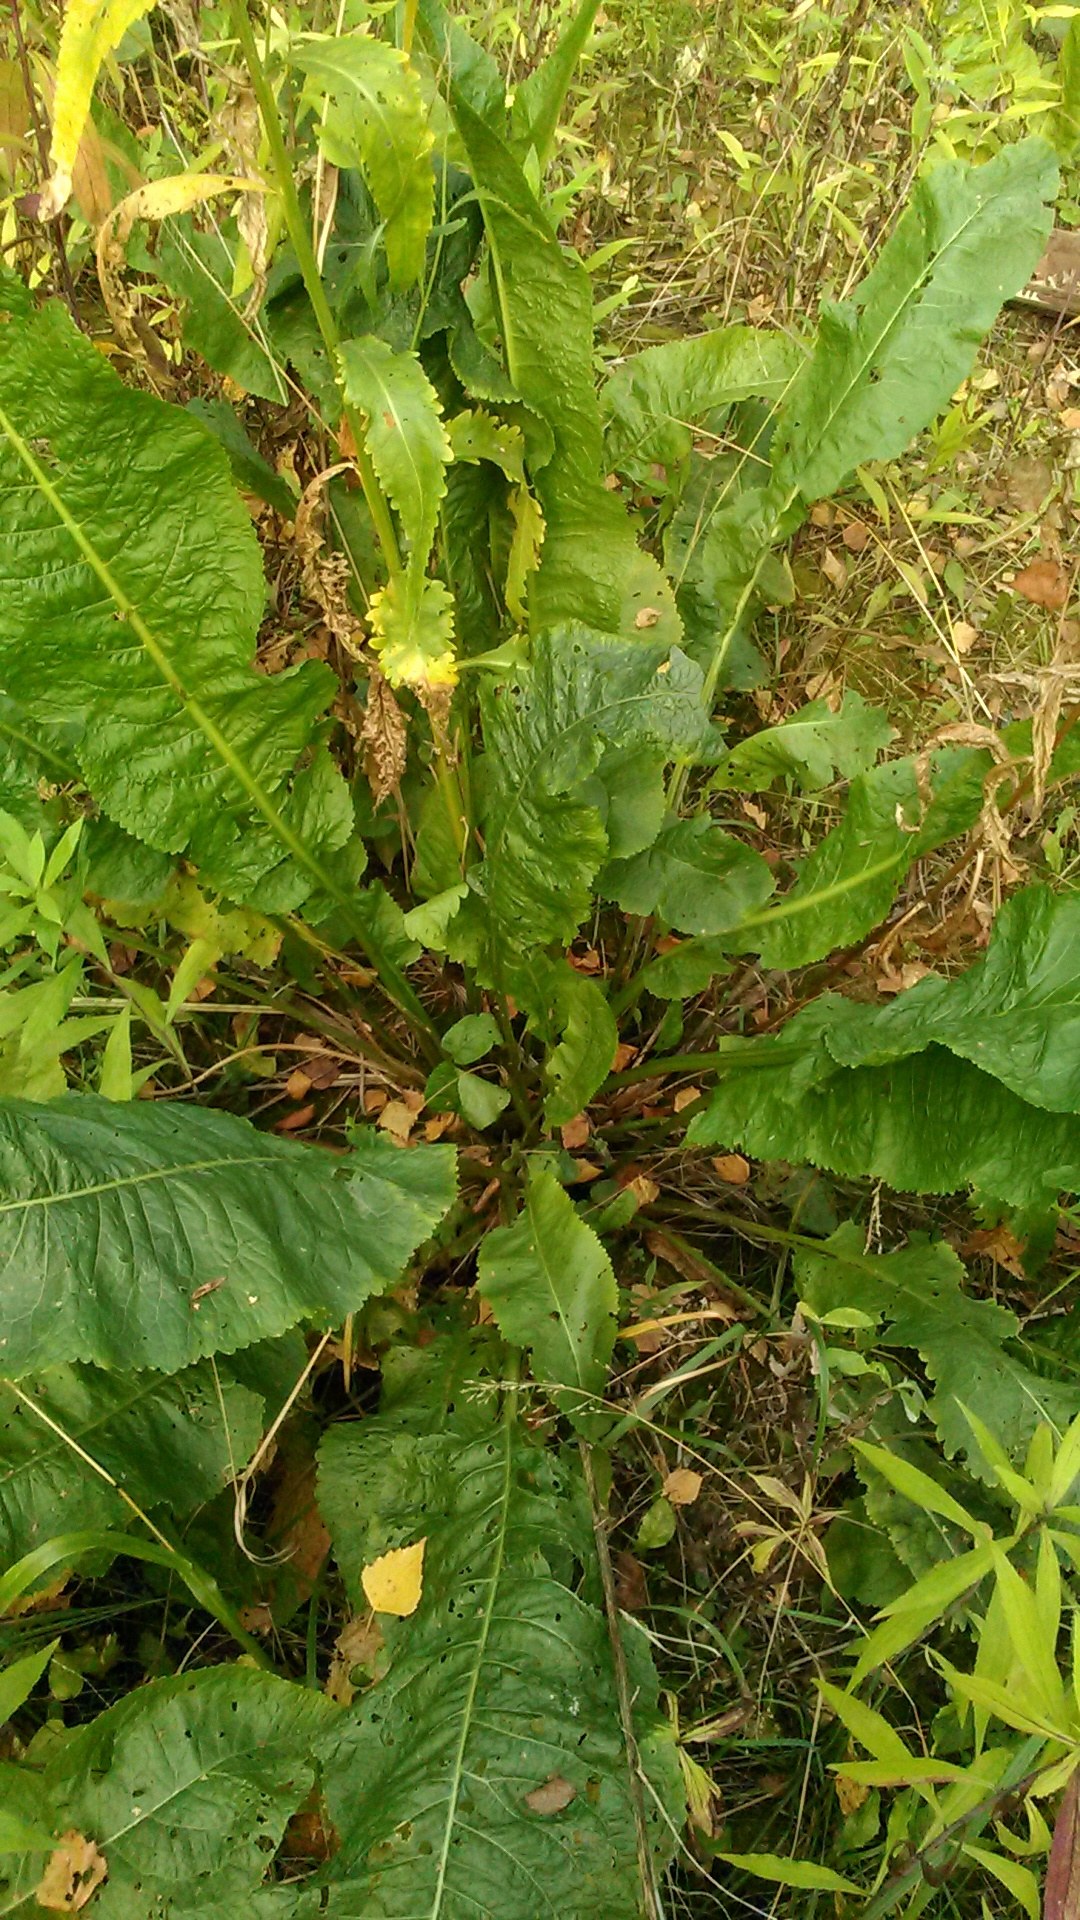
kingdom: Plantae
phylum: Tracheophyta
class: Magnoliopsida
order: Brassicales
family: Brassicaceae
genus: Armoracia
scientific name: Armoracia rusticana
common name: Horseradish
